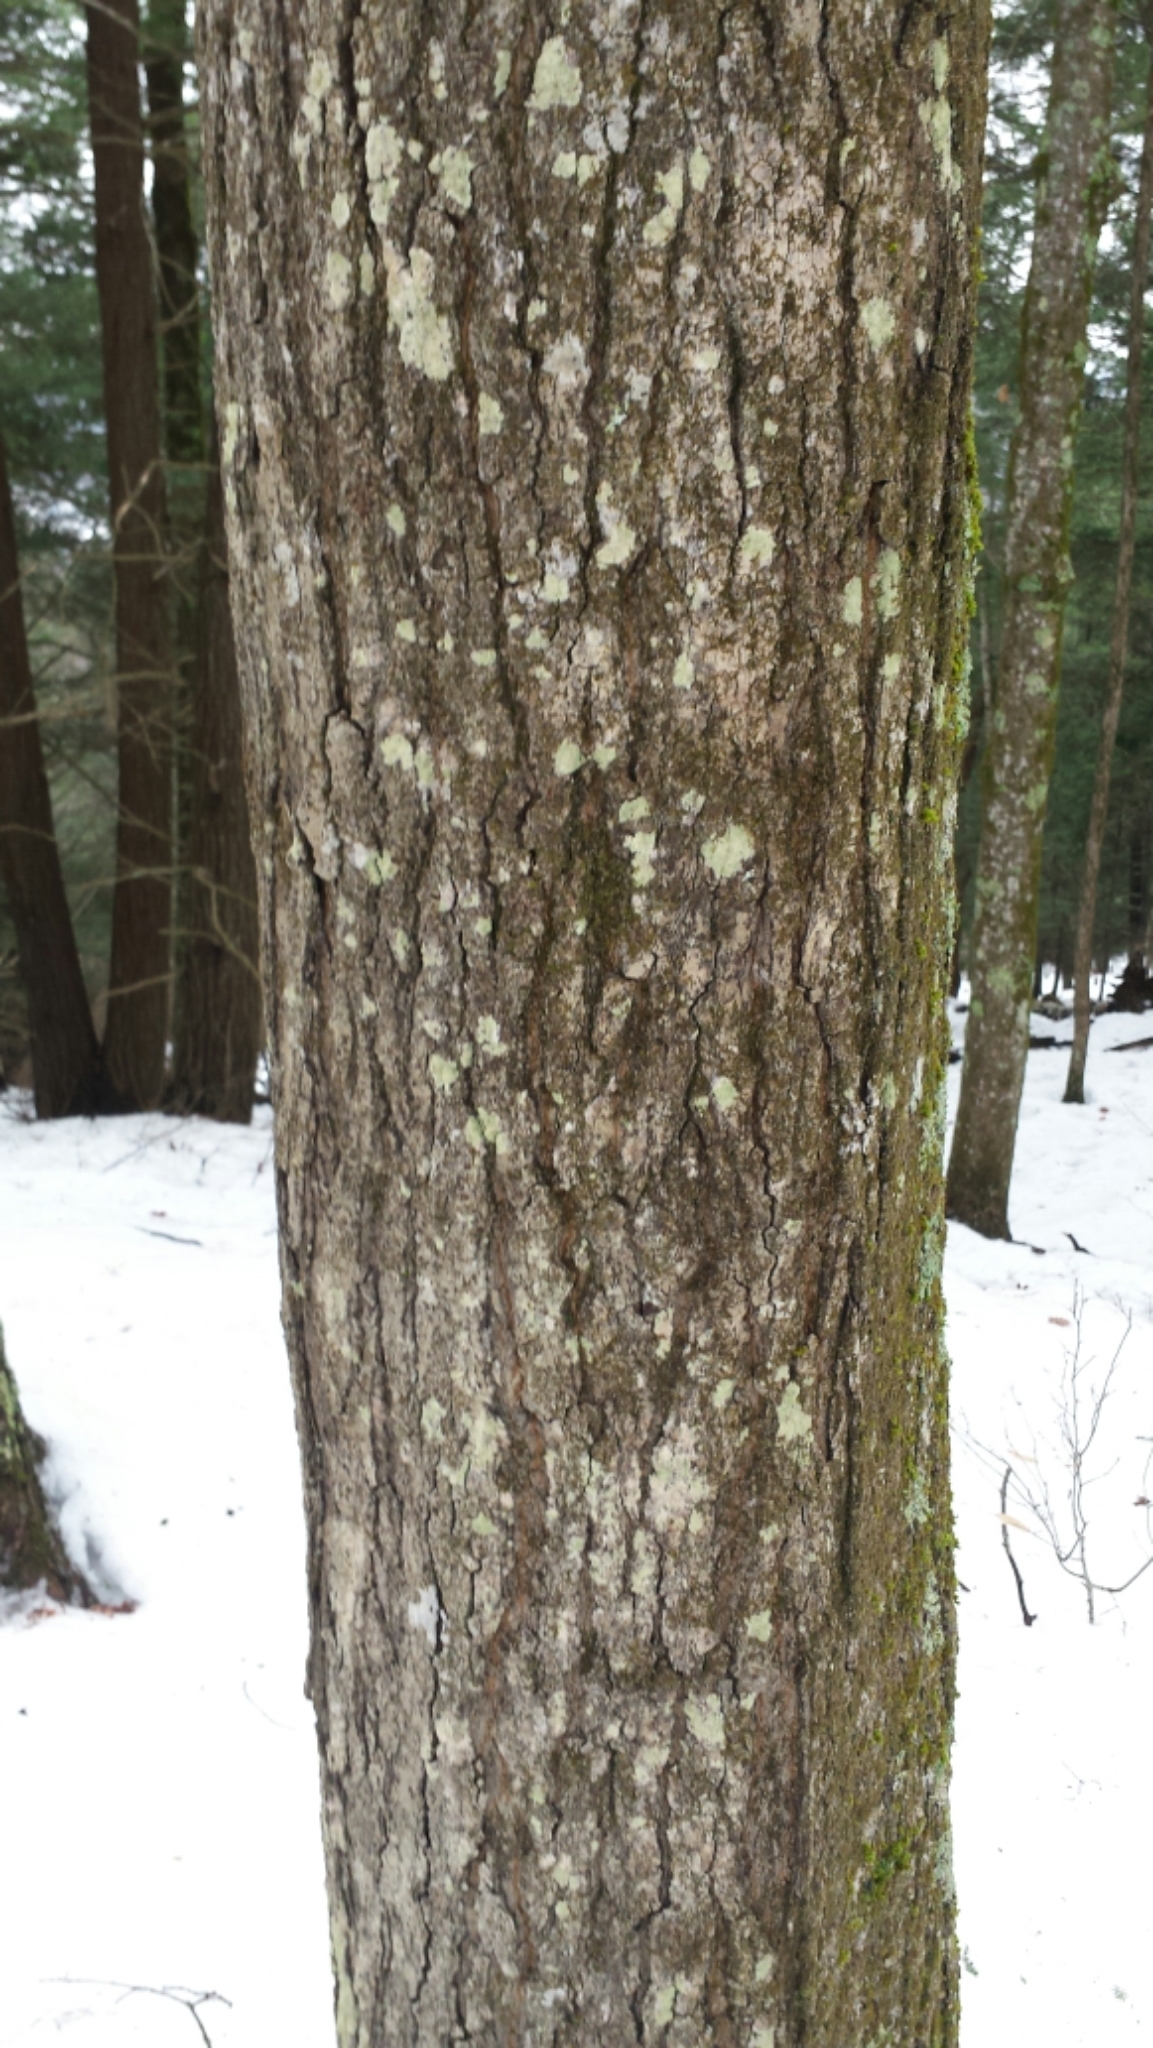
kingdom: Plantae
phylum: Tracheophyta
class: Magnoliopsida
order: Sapindales
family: Sapindaceae
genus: Acer
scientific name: Acer saccharum
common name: Sugar maple
